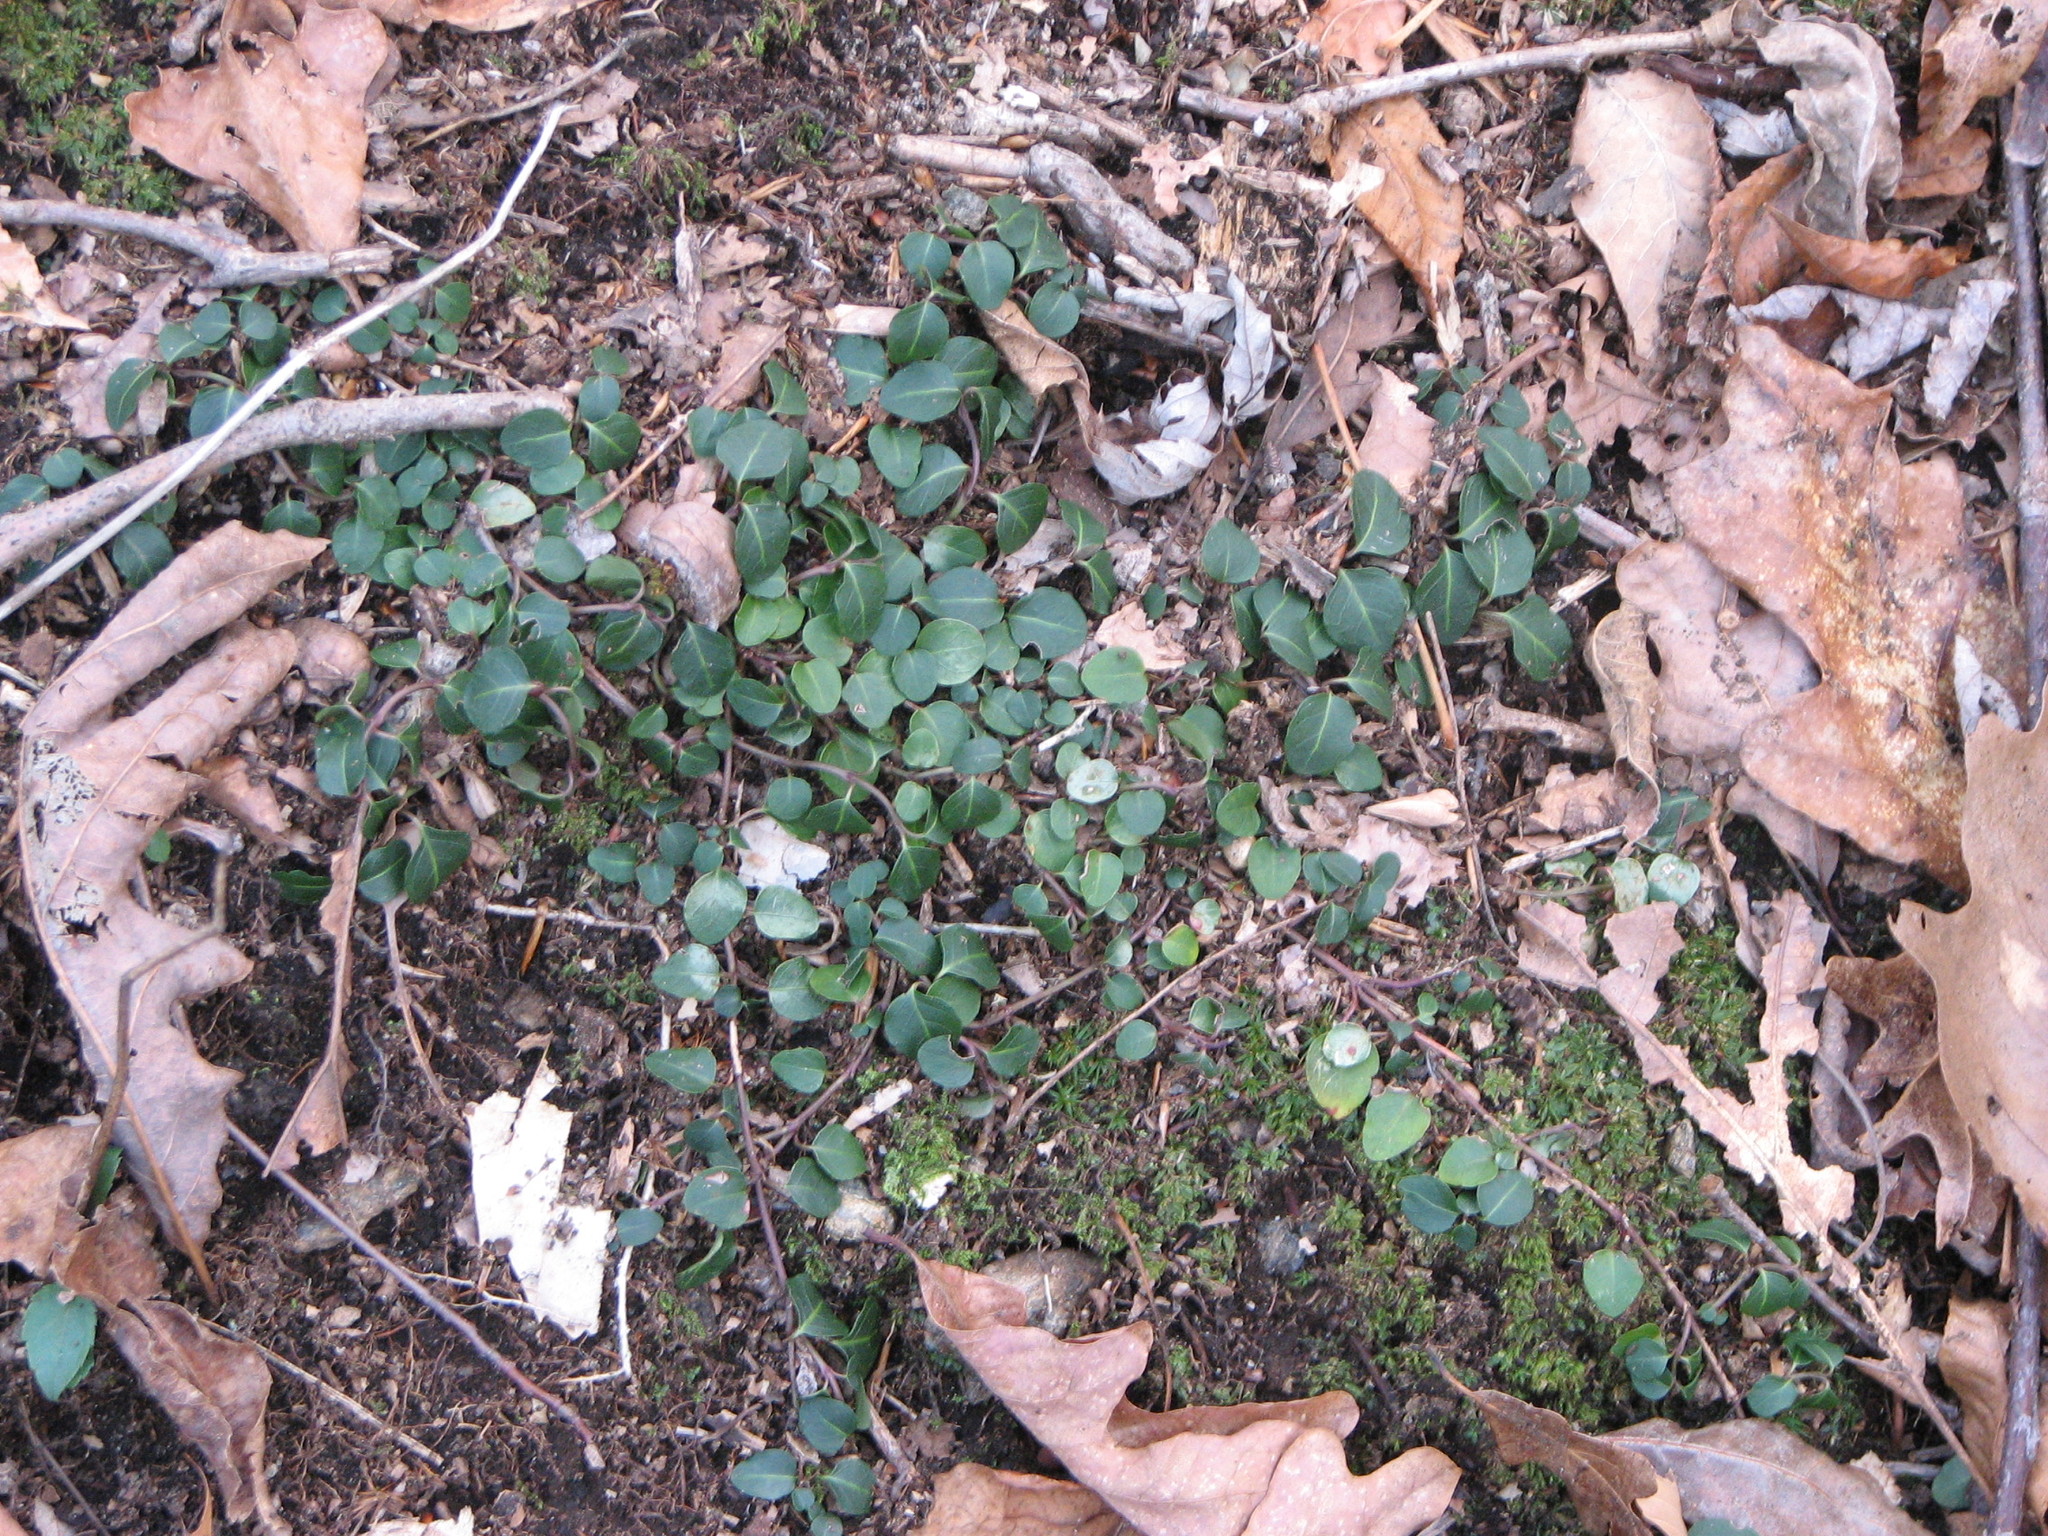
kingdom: Plantae
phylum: Tracheophyta
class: Magnoliopsida
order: Gentianales
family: Rubiaceae
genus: Mitchella
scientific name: Mitchella repens
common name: Partridge-berry
